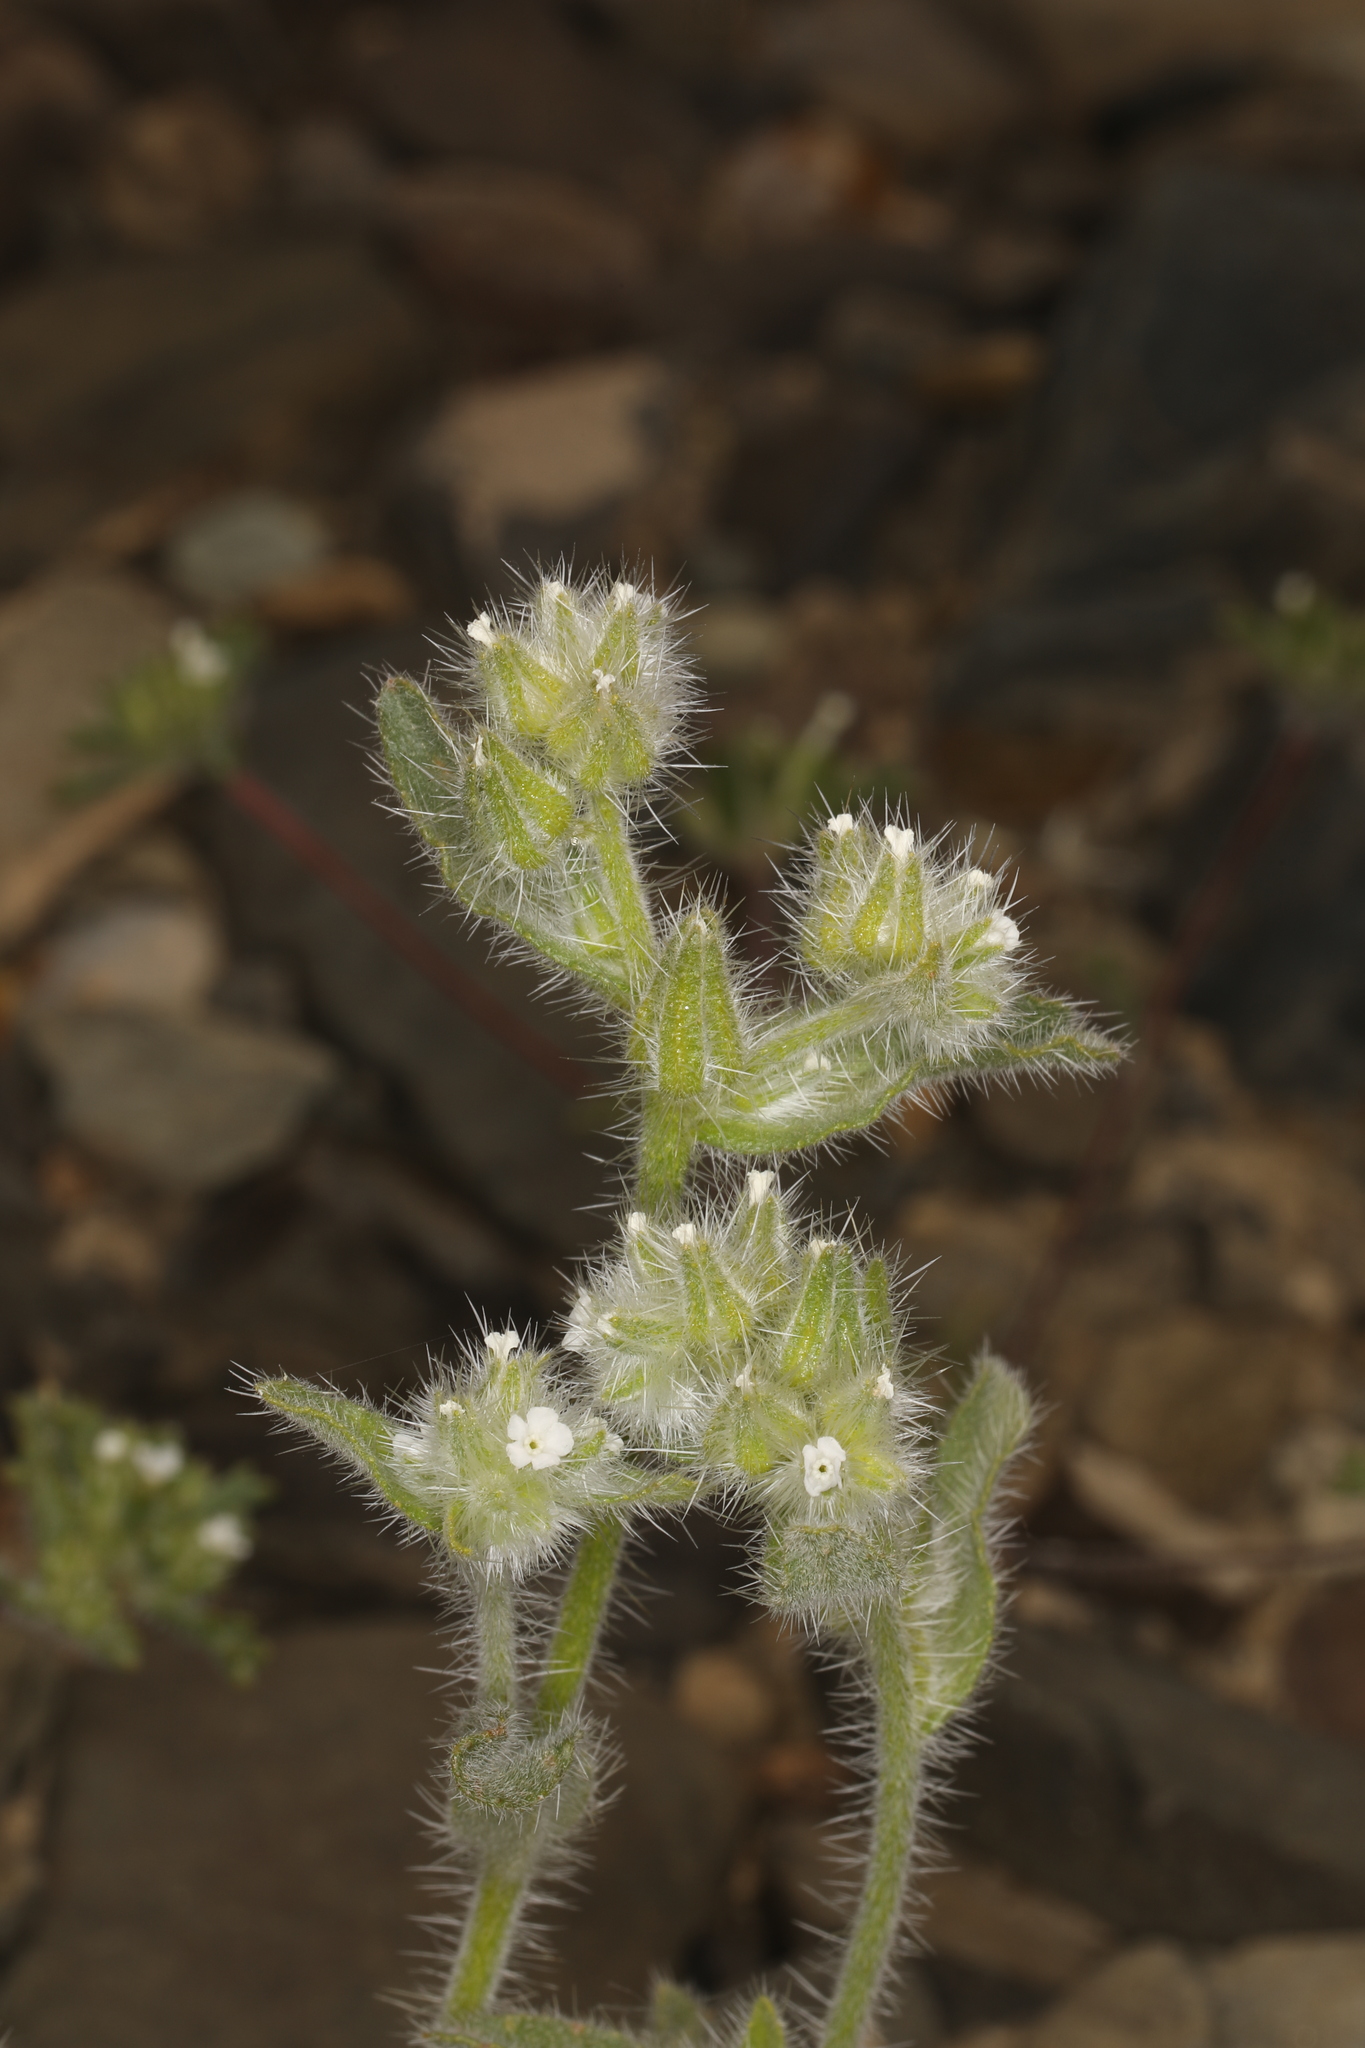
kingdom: Plantae
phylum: Tracheophyta
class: Magnoliopsida
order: Boraginales
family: Boraginaceae
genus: Simpsonanthus
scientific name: Simpsonanthus jonesii
